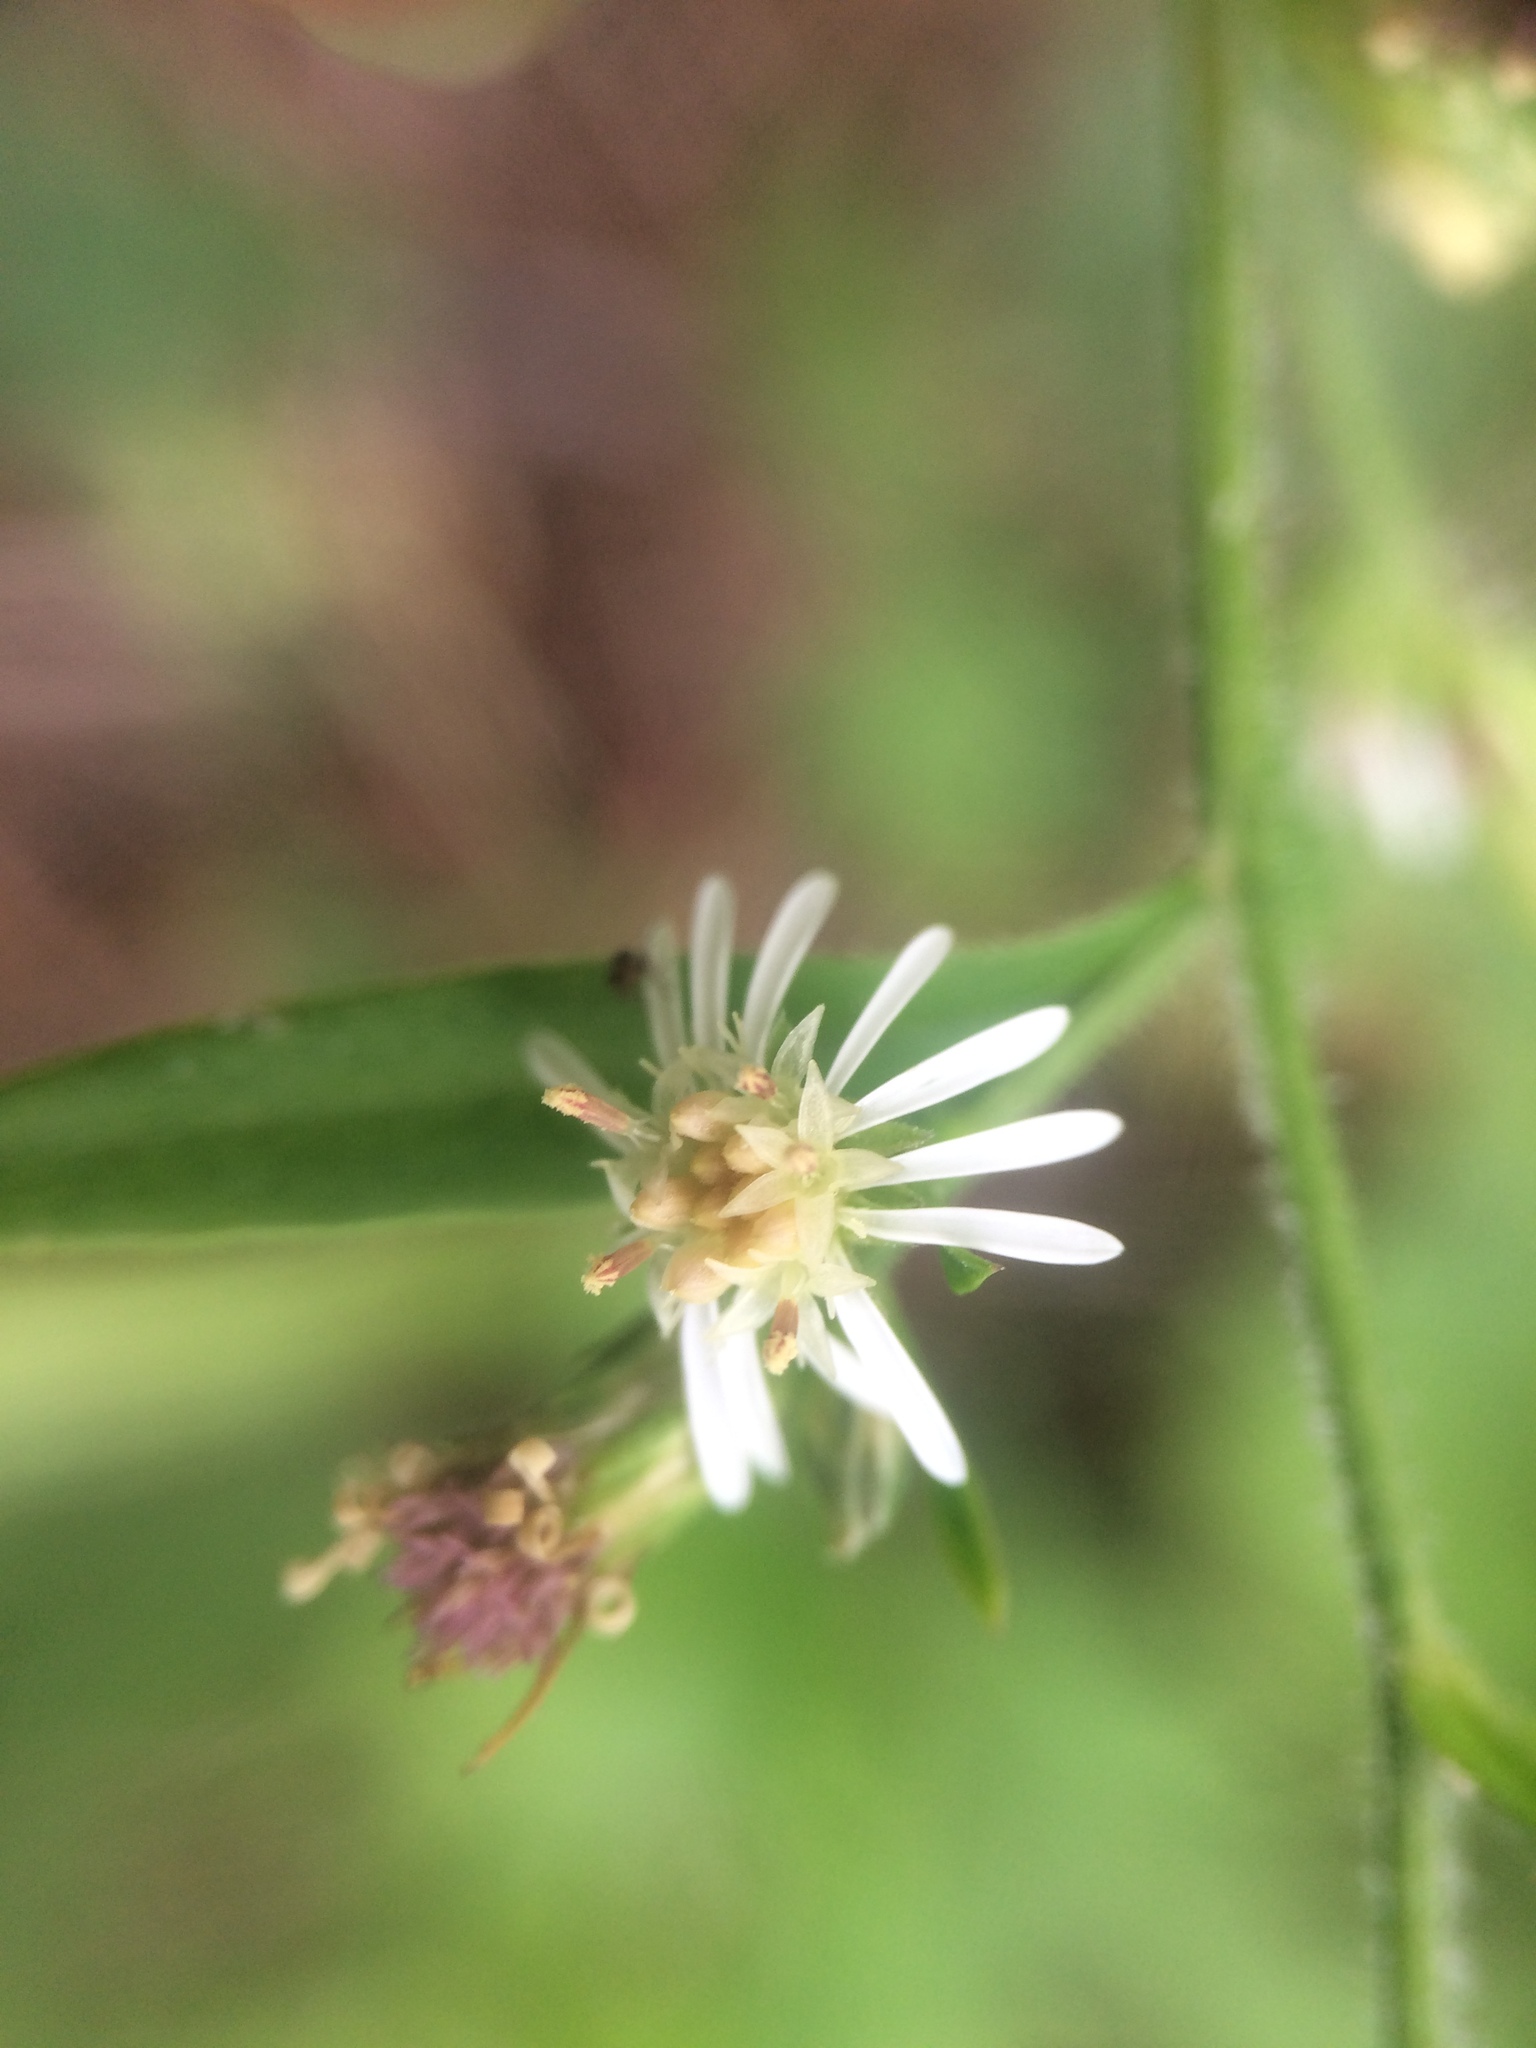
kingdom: Plantae
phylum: Tracheophyta
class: Magnoliopsida
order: Asterales
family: Asteraceae
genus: Symphyotrichum
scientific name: Symphyotrichum lateriflorum
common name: Calico aster
